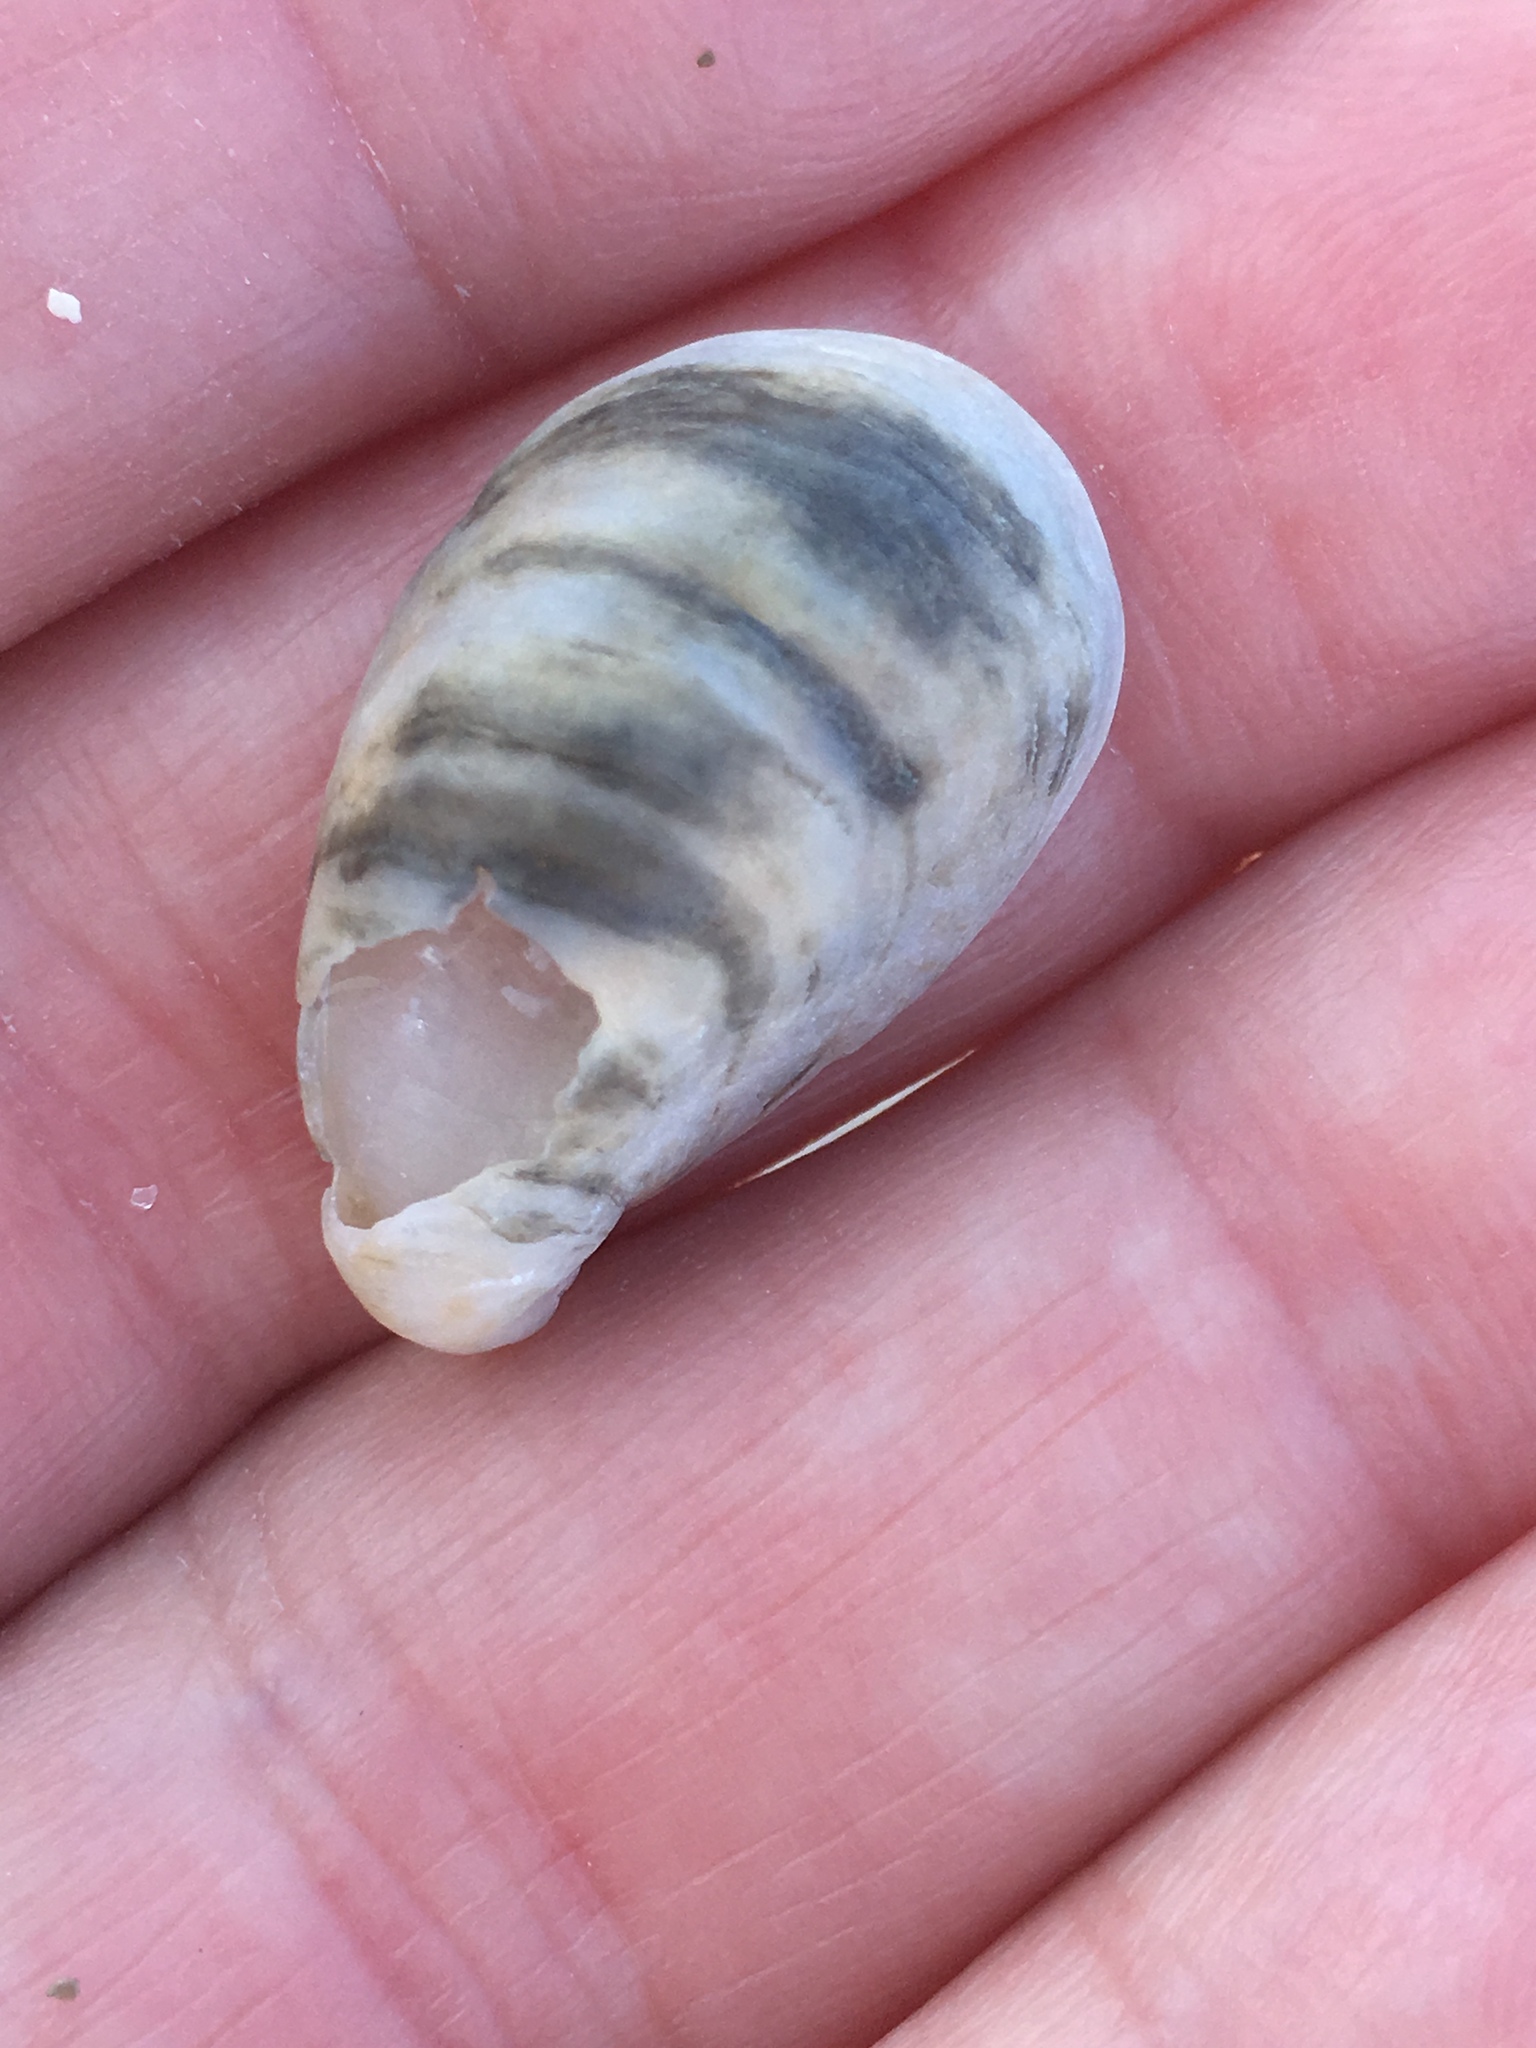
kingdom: Animalia
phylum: Mollusca
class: Gastropoda
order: Littorinimorpha
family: Calyptraeidae
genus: Crepidula
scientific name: Crepidula fornicata
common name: Slipper limpet
